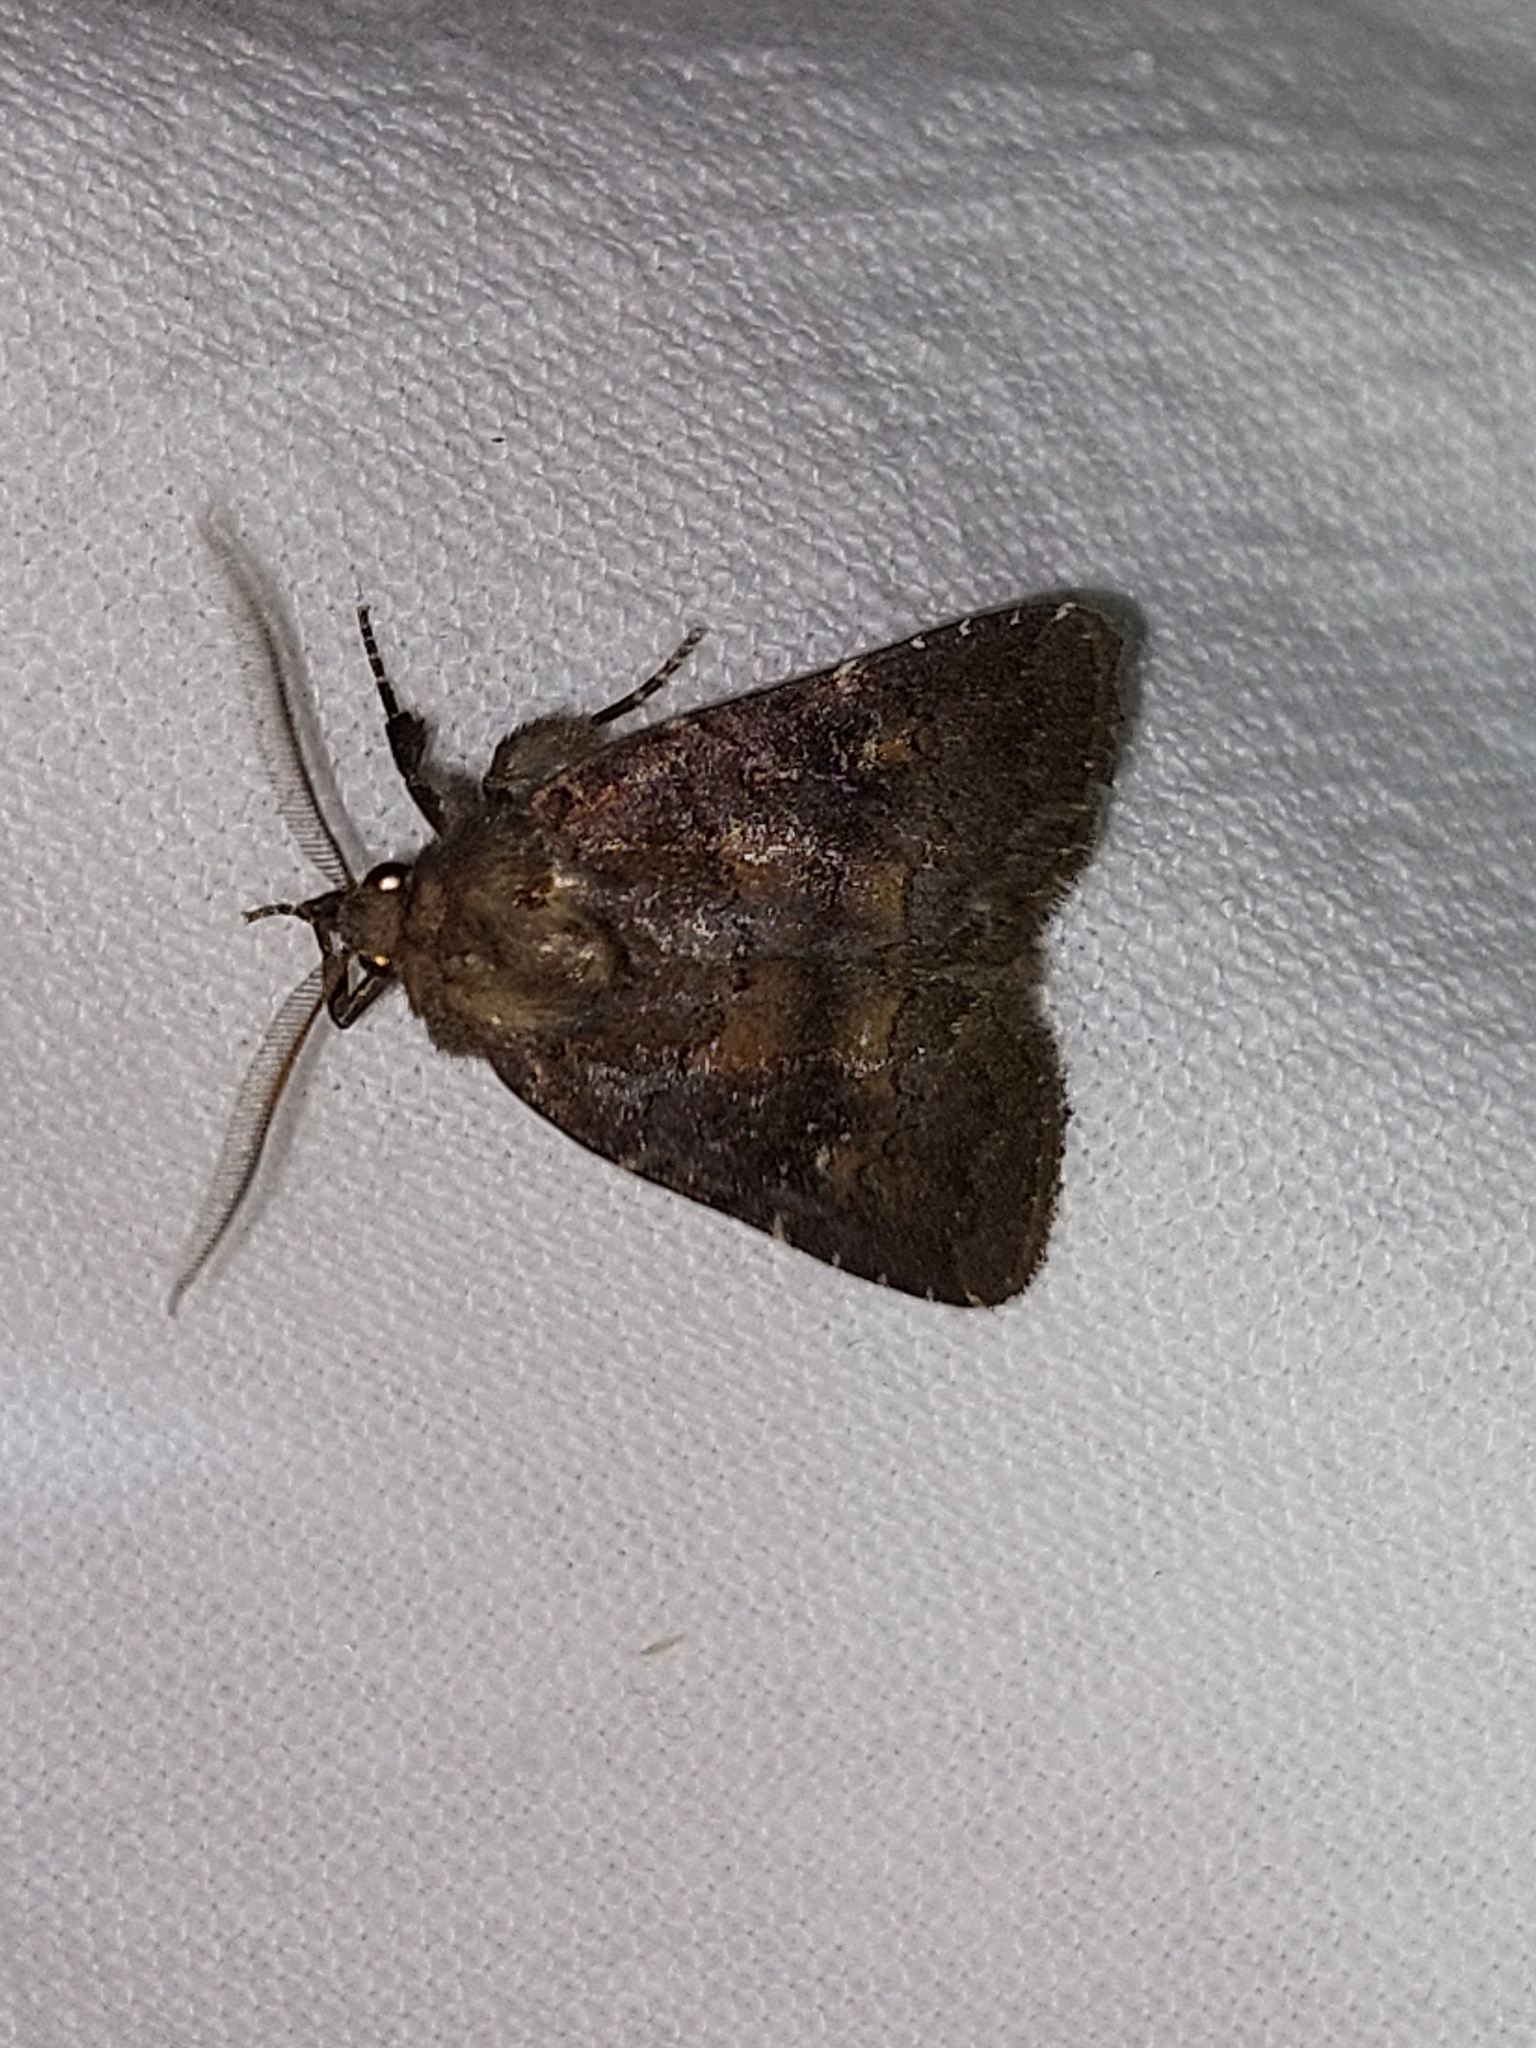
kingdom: Animalia
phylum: Arthropoda
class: Insecta
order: Lepidoptera
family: Noctuidae
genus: Charanyca
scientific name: Charanyca ferruginea
